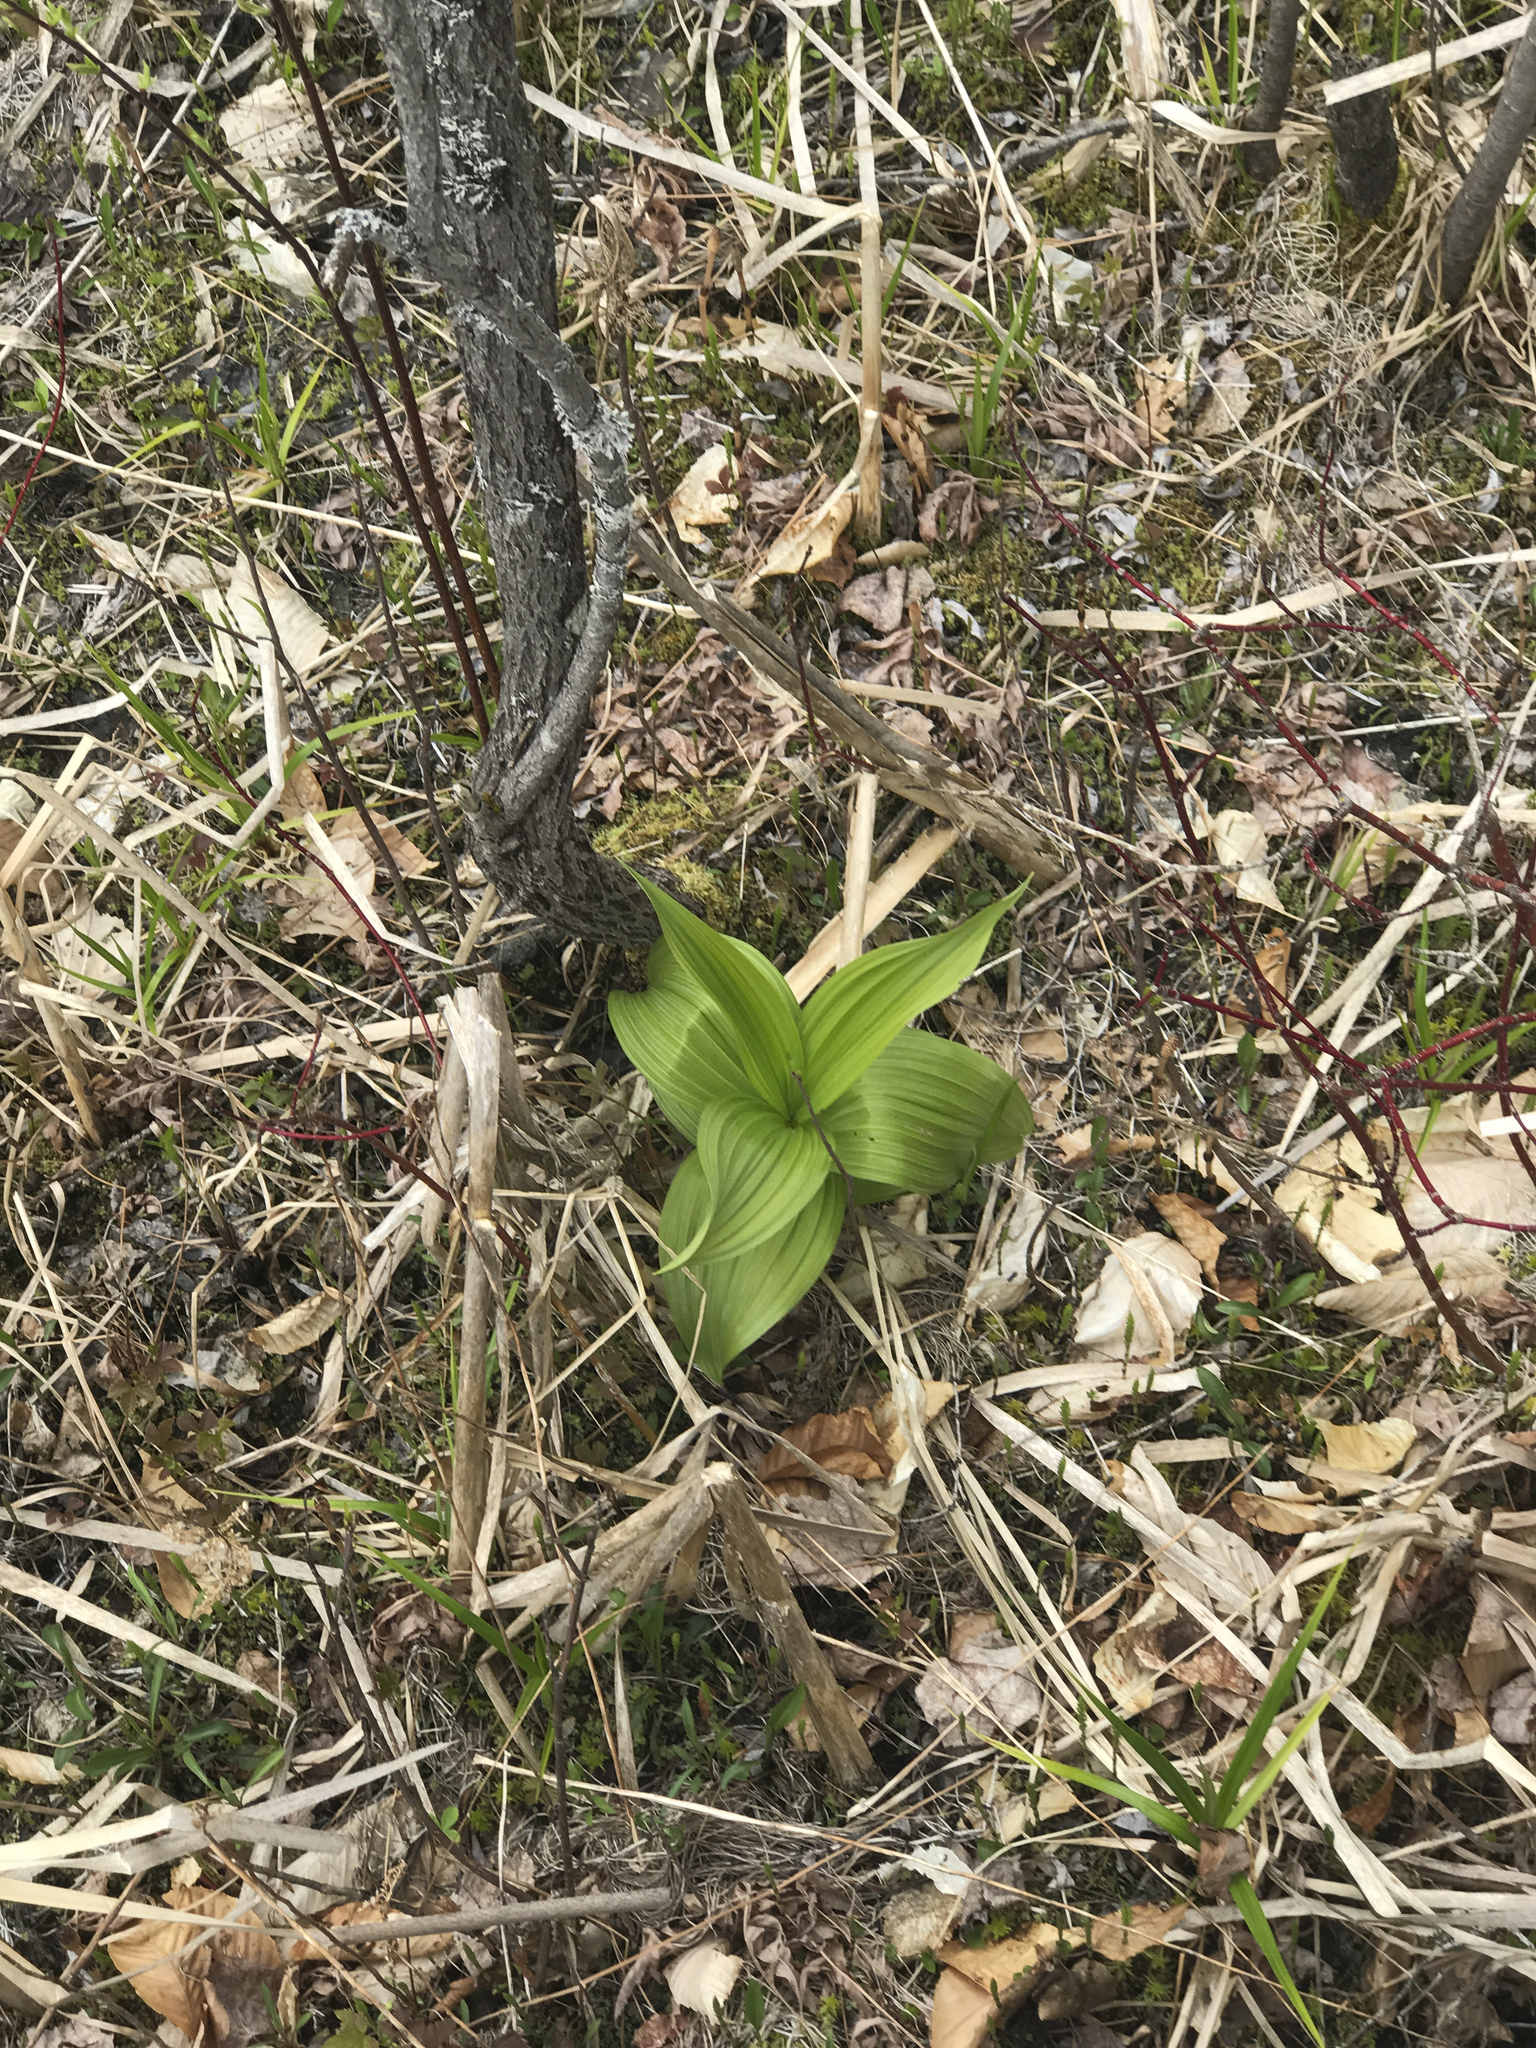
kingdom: Plantae
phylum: Tracheophyta
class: Liliopsida
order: Liliales
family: Melanthiaceae
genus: Veratrum
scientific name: Veratrum viride
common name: American false hellebore
